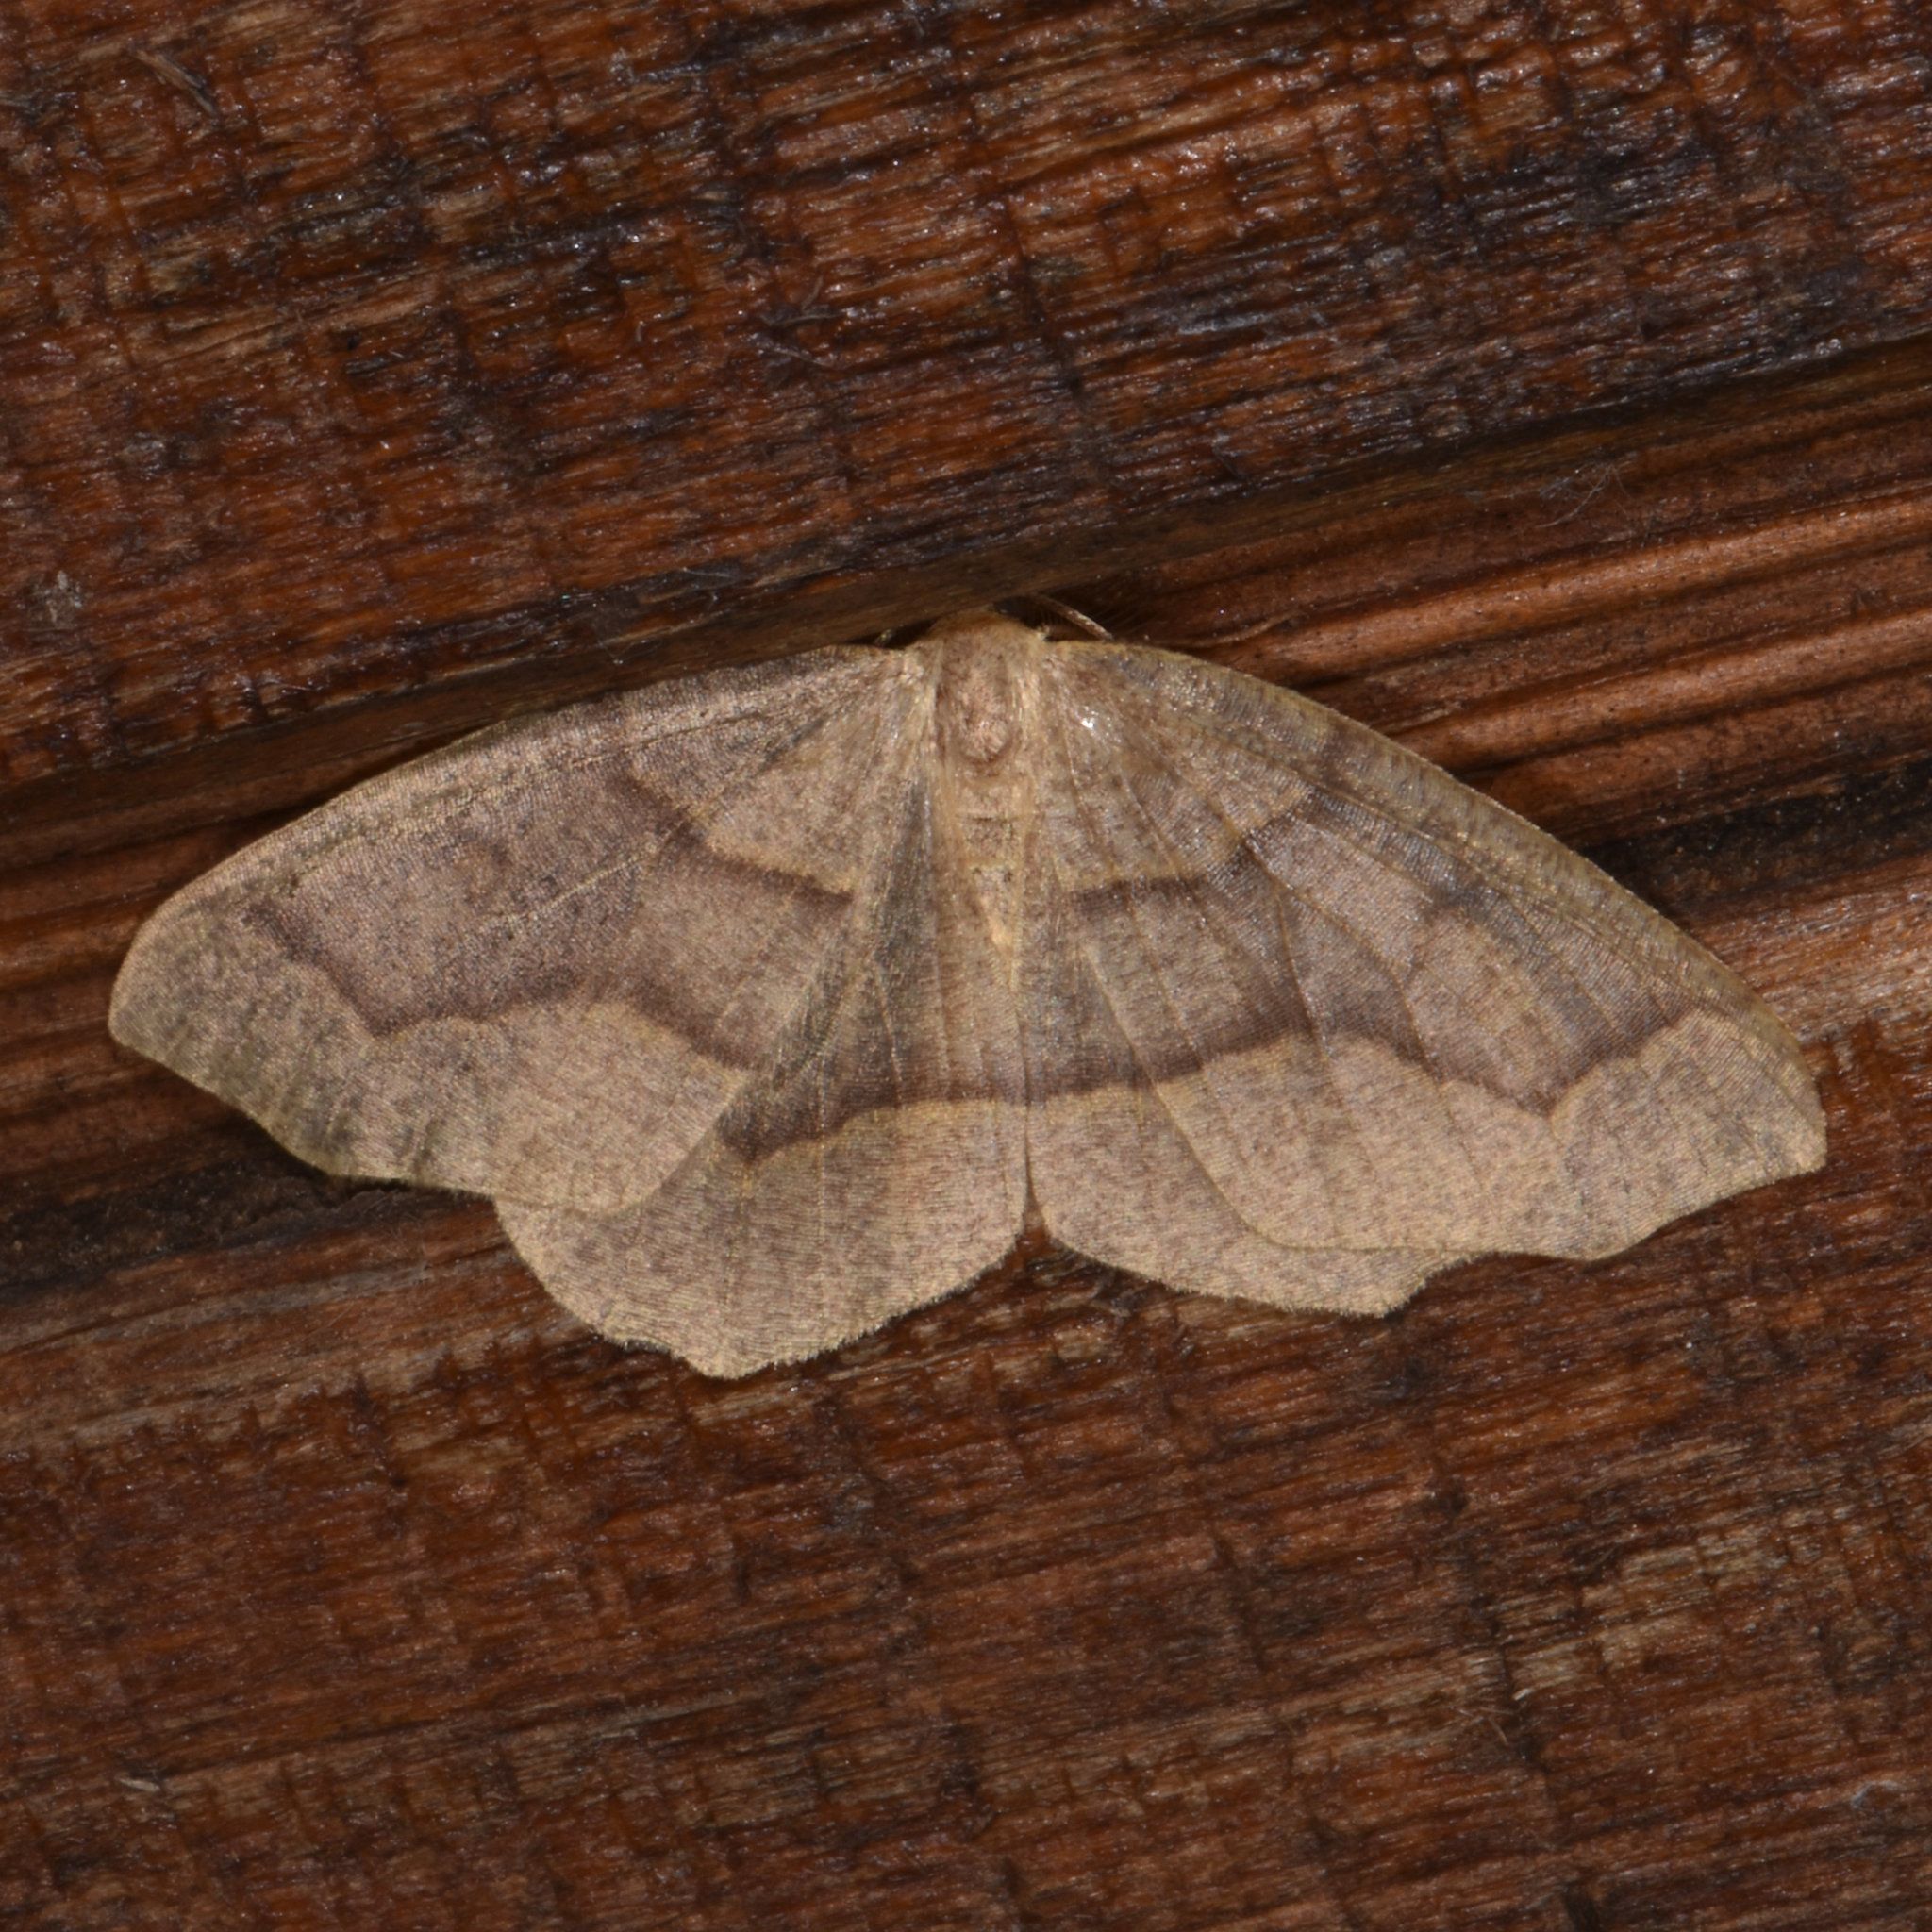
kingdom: Animalia
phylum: Arthropoda
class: Insecta
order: Lepidoptera
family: Geometridae
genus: Lambdina
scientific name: Lambdina fiscellaria
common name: Hemlock looper
